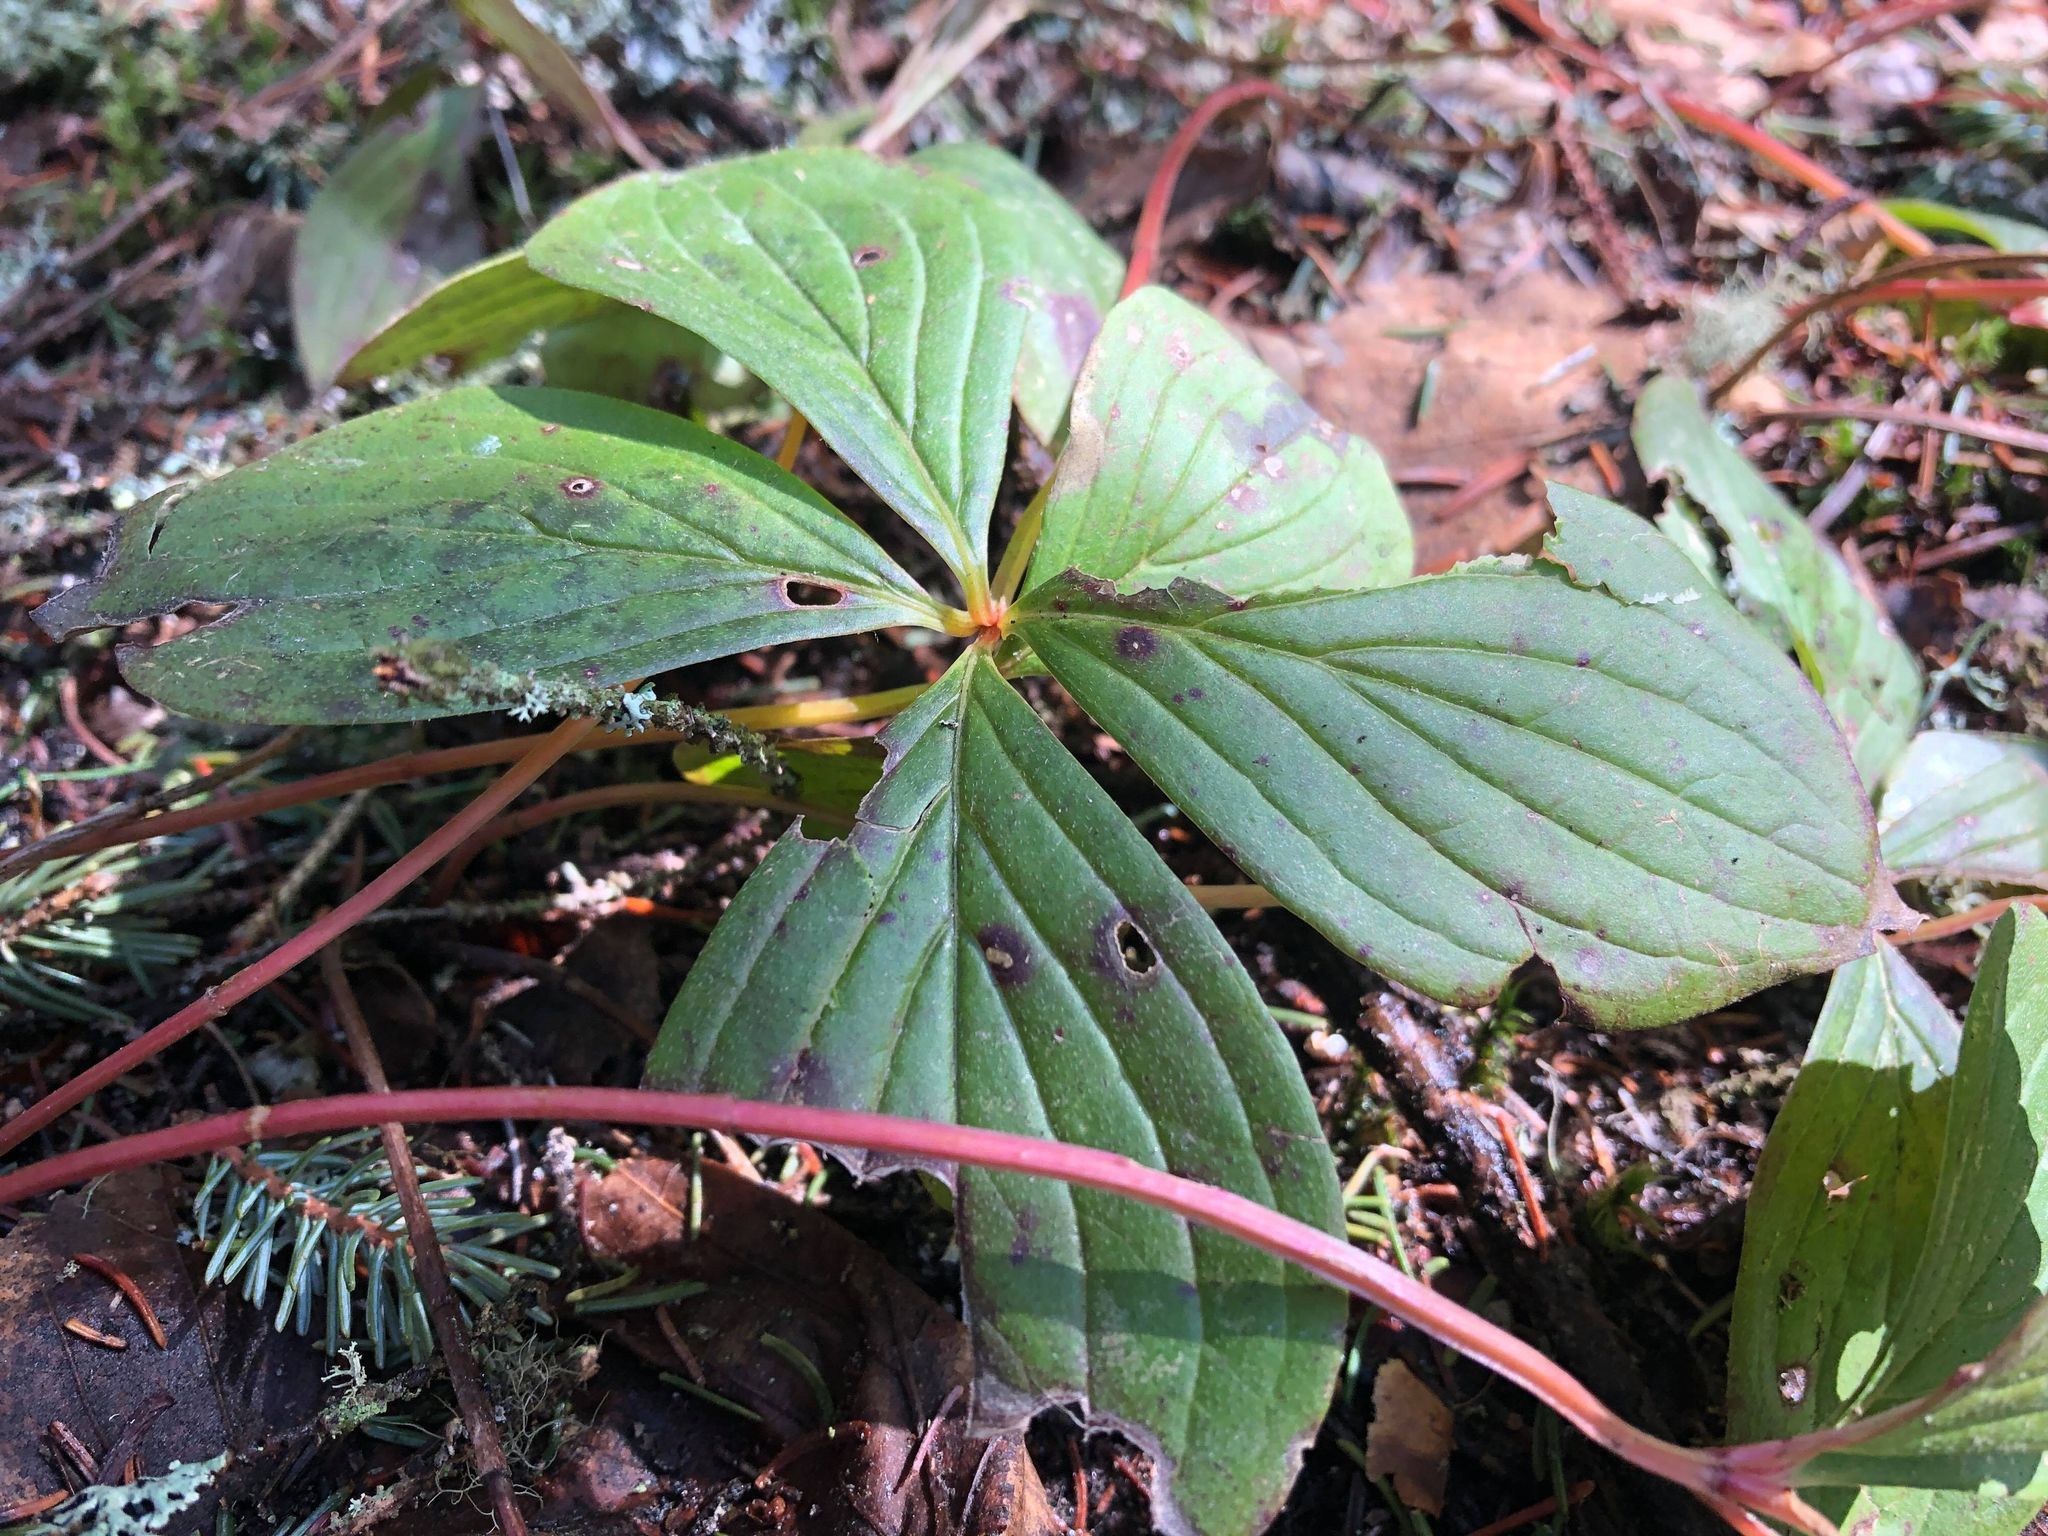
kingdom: Plantae
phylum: Tracheophyta
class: Magnoliopsida
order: Cornales
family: Cornaceae
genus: Cornus
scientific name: Cornus canadensis
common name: Creeping dogwood
